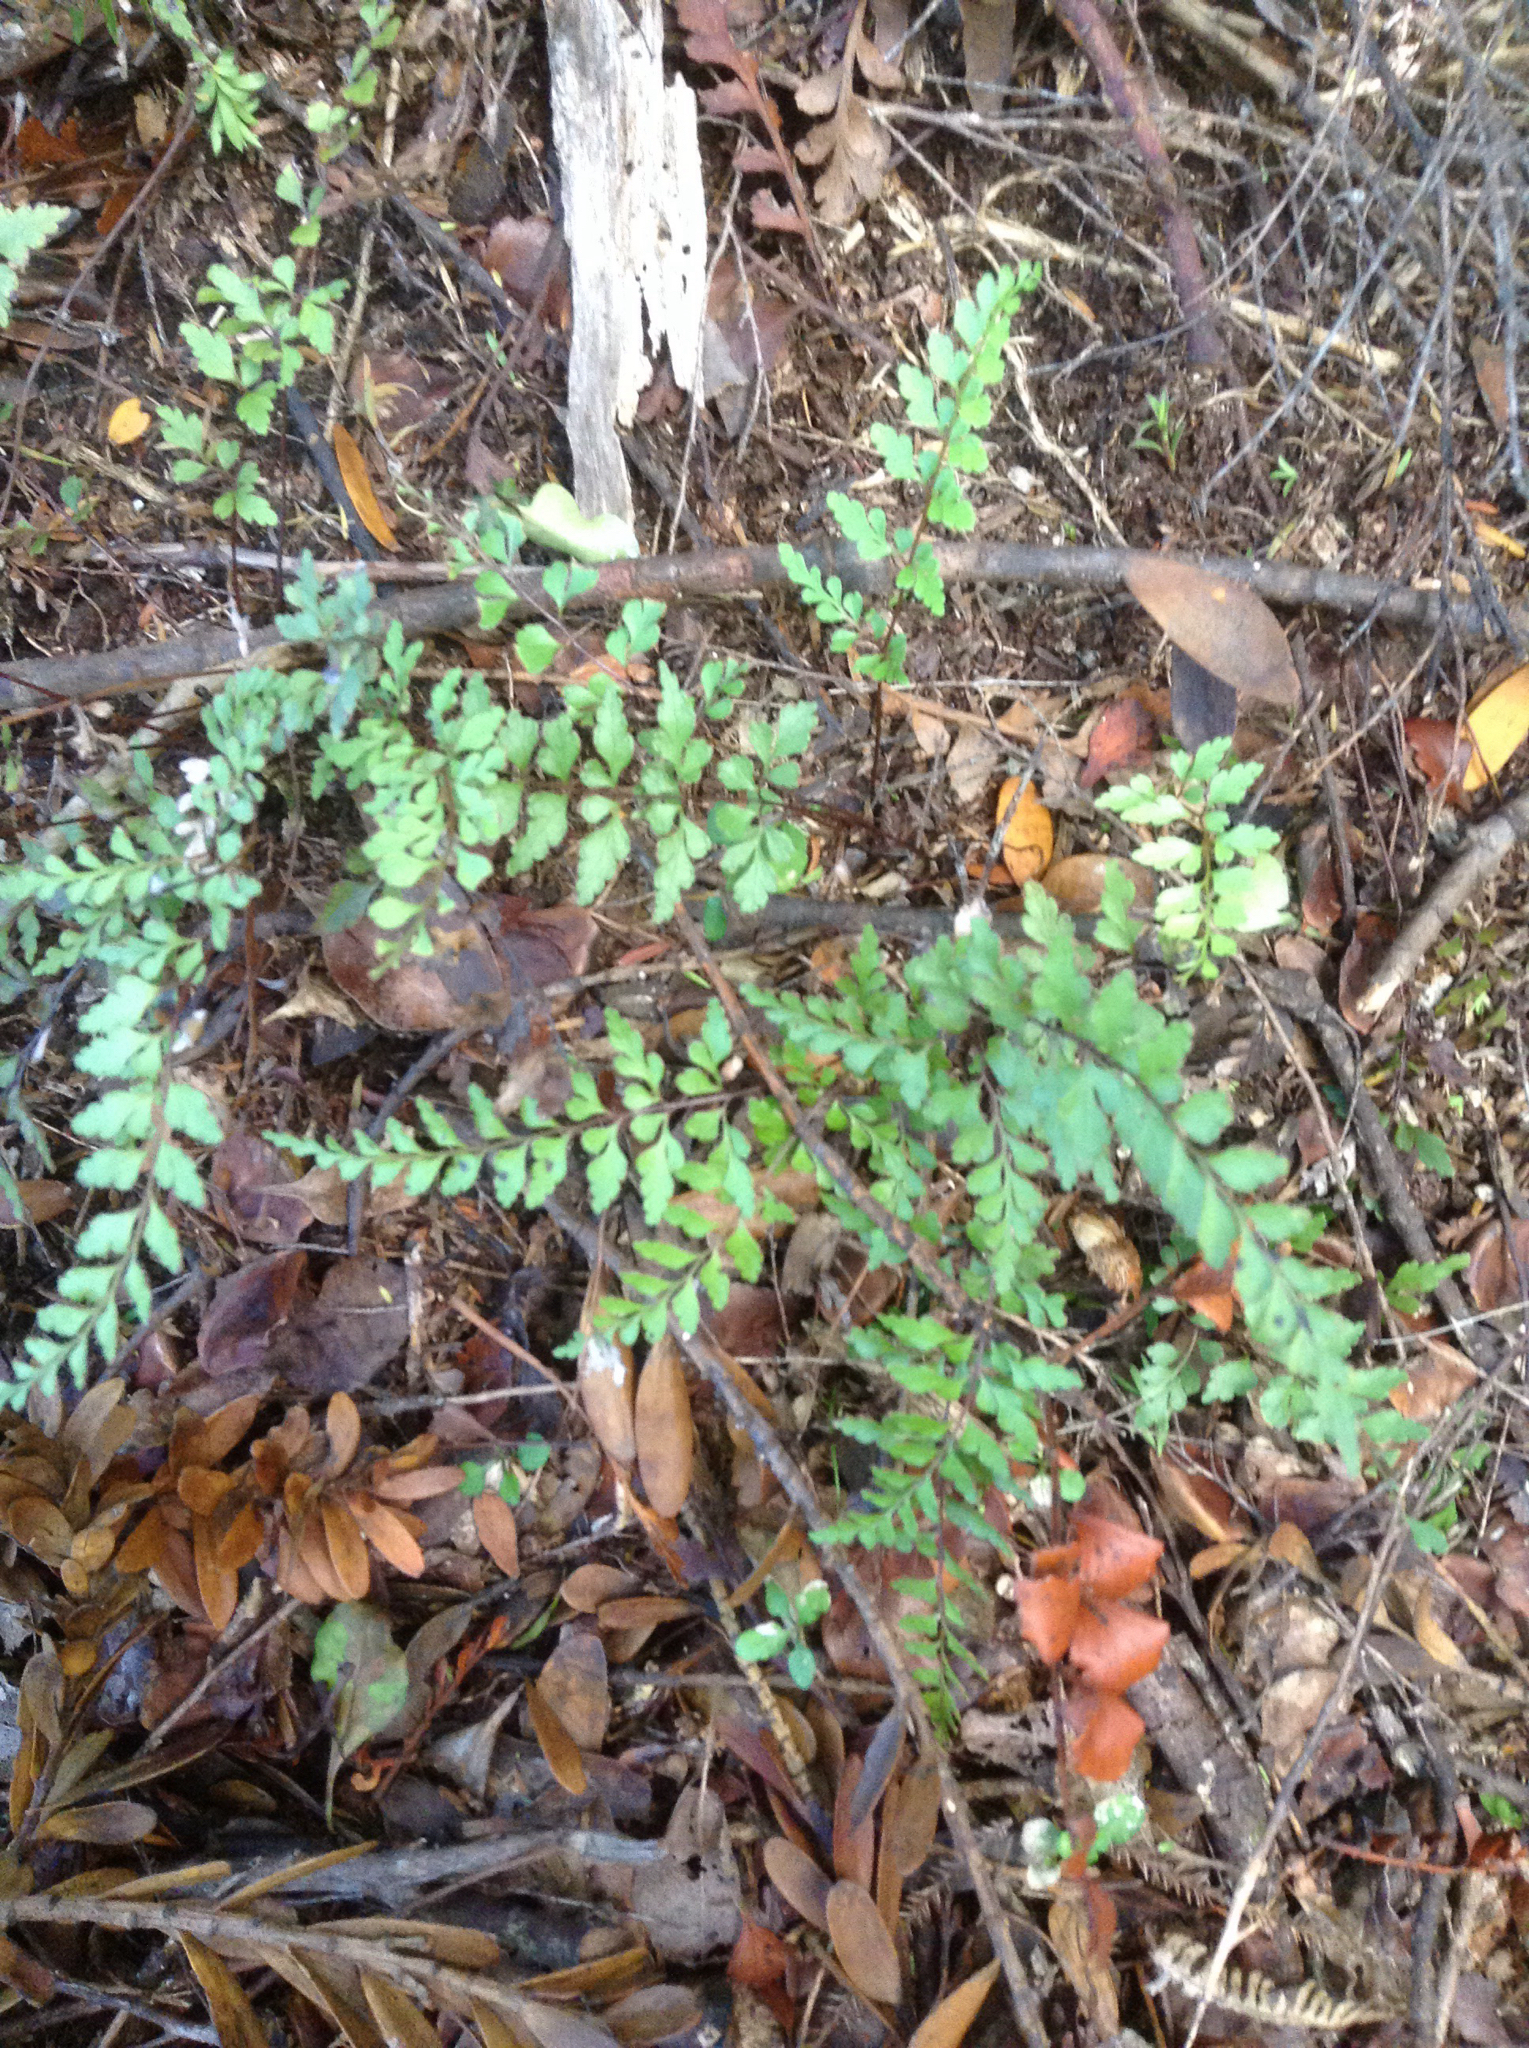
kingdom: Plantae
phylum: Tracheophyta
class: Polypodiopsida
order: Polypodiales
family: Lindsaeaceae
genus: Lindsaea
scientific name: Lindsaea trichomanoides
